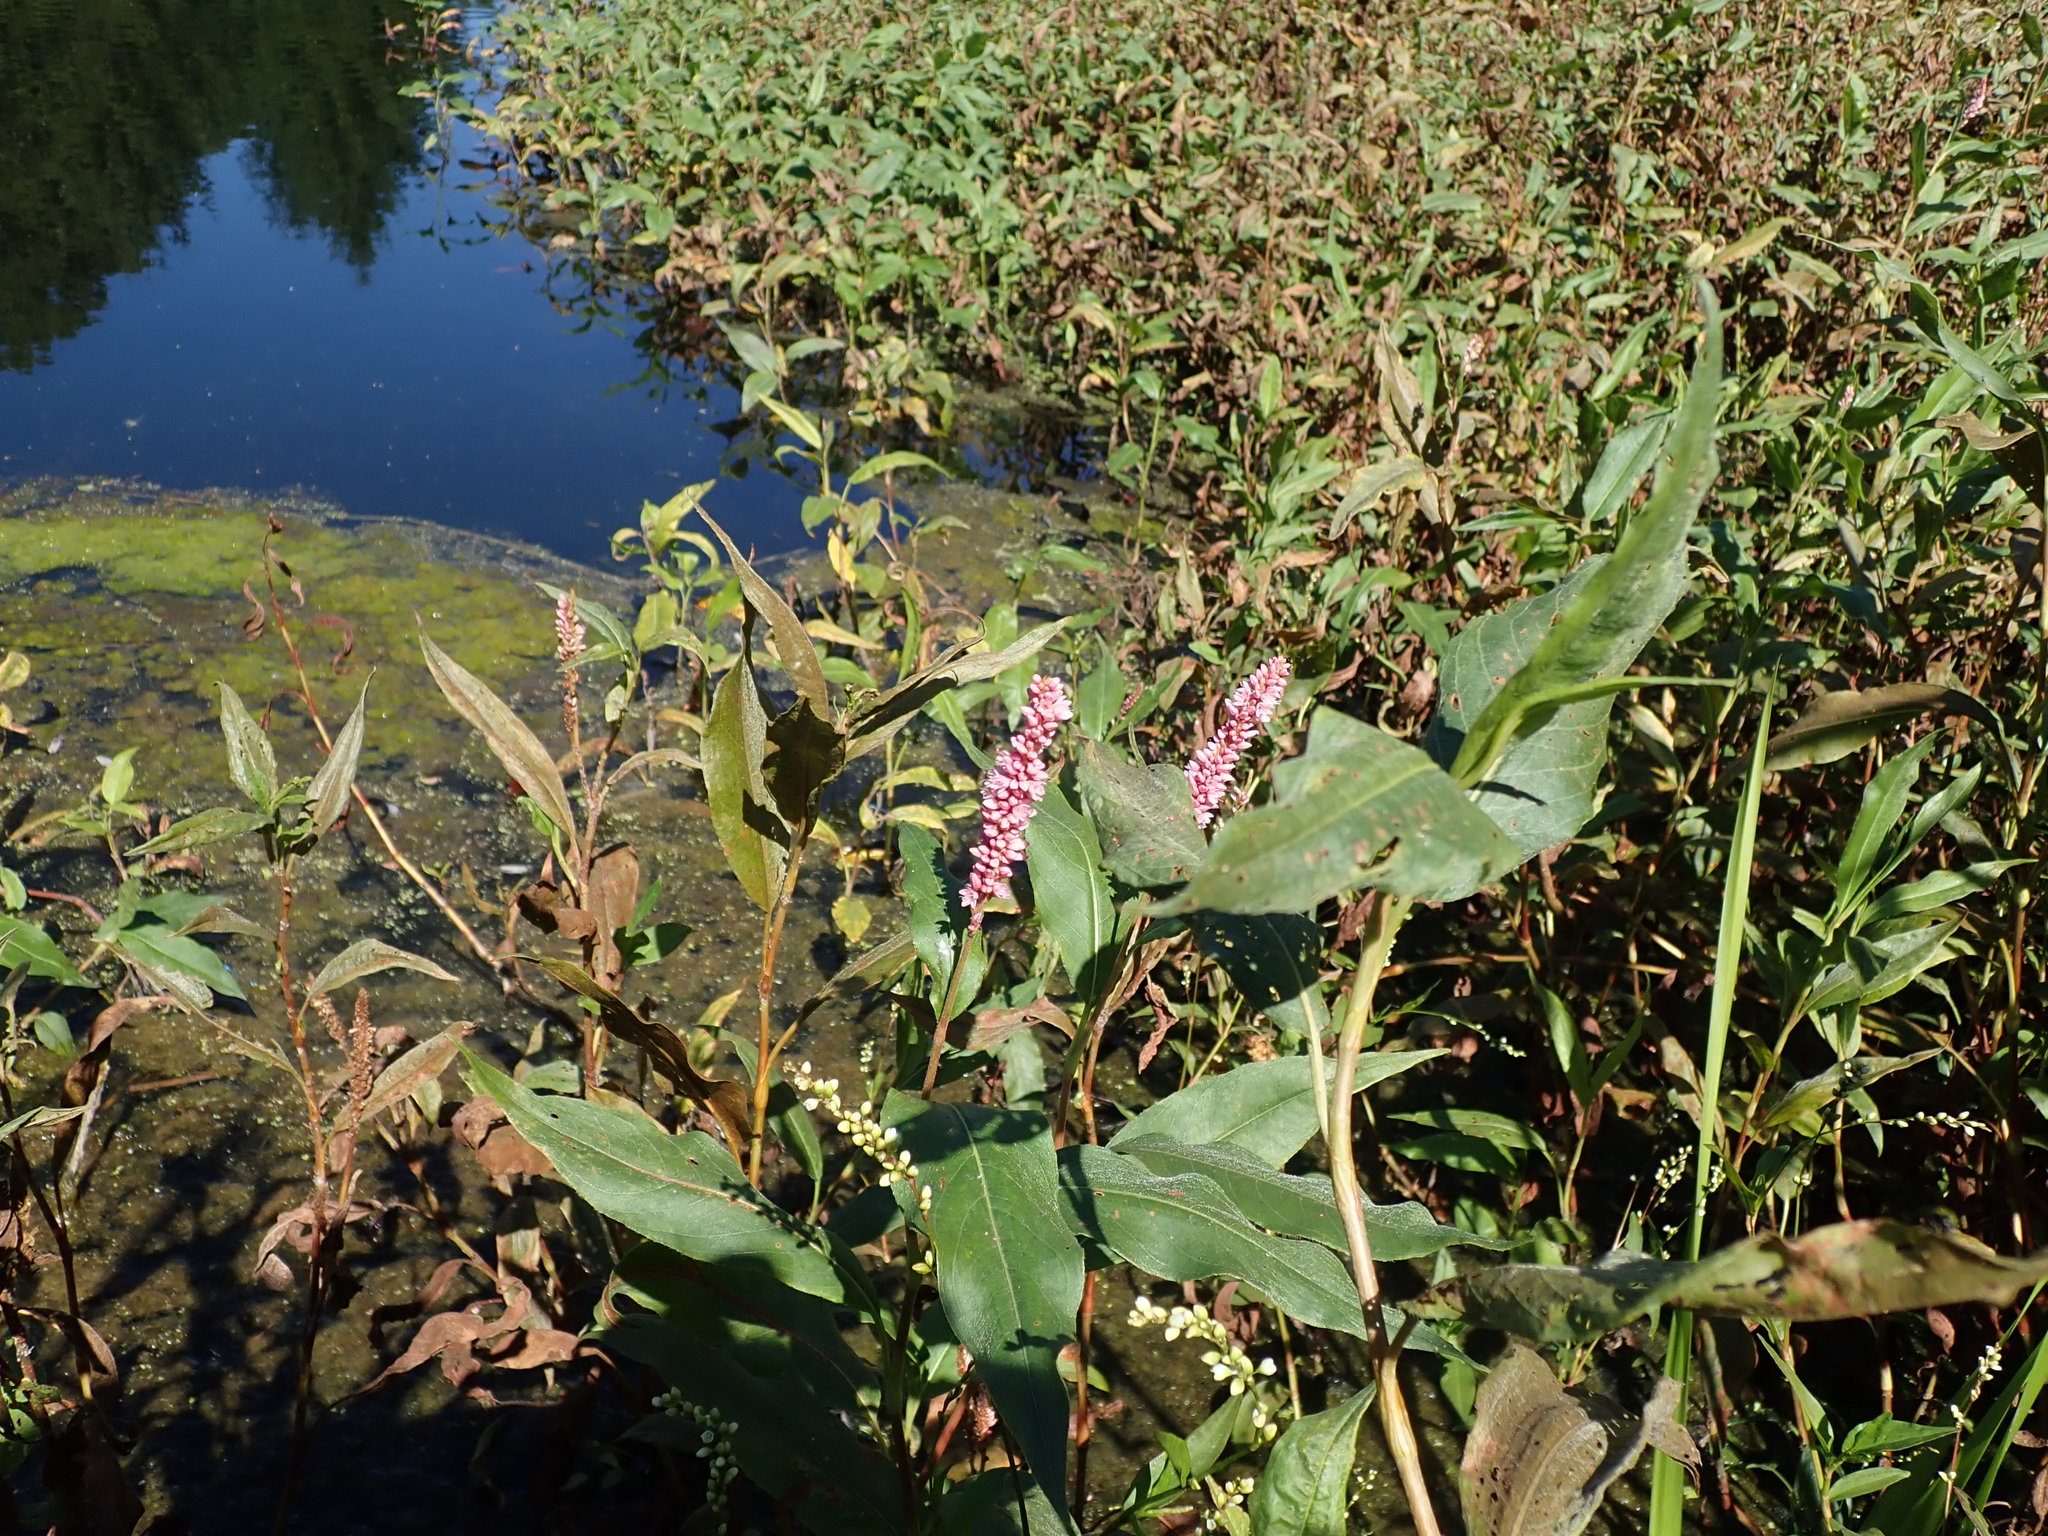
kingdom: Plantae
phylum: Tracheophyta
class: Magnoliopsida
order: Caryophyllales
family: Polygonaceae
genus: Persicaria
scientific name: Persicaria amphibia
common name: Amphibious bistort
